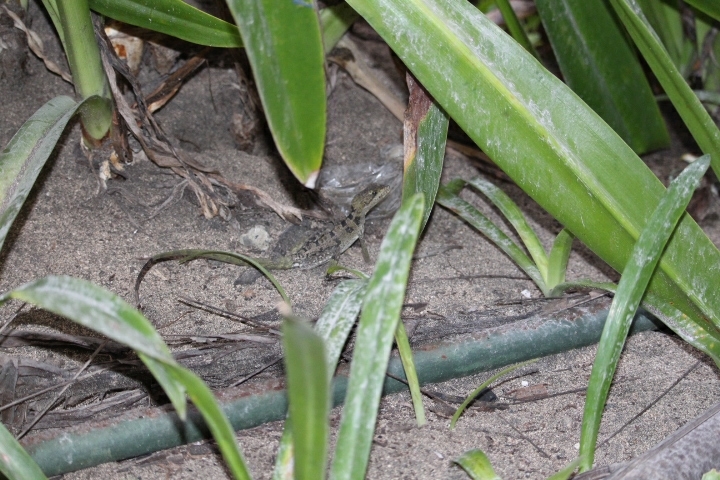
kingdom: Animalia
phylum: Chordata
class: Squamata
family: Corytophanidae
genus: Basiliscus
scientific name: Basiliscus vittatus
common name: Brown basilisk
